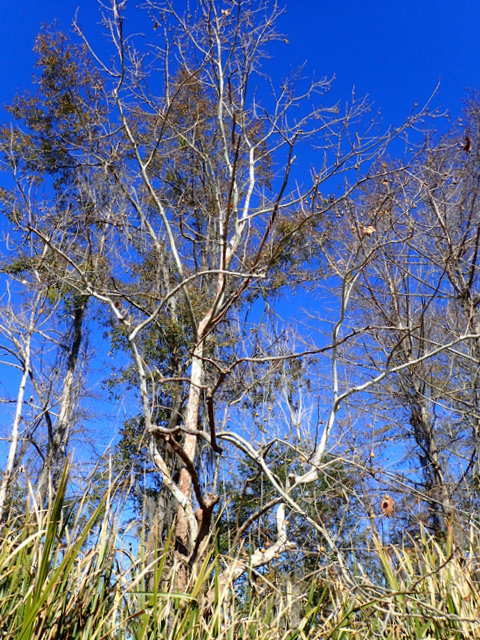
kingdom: Plantae
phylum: Tracheophyta
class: Magnoliopsida
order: Proteales
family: Platanaceae
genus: Platanus
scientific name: Platanus occidentalis
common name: American sycamore
